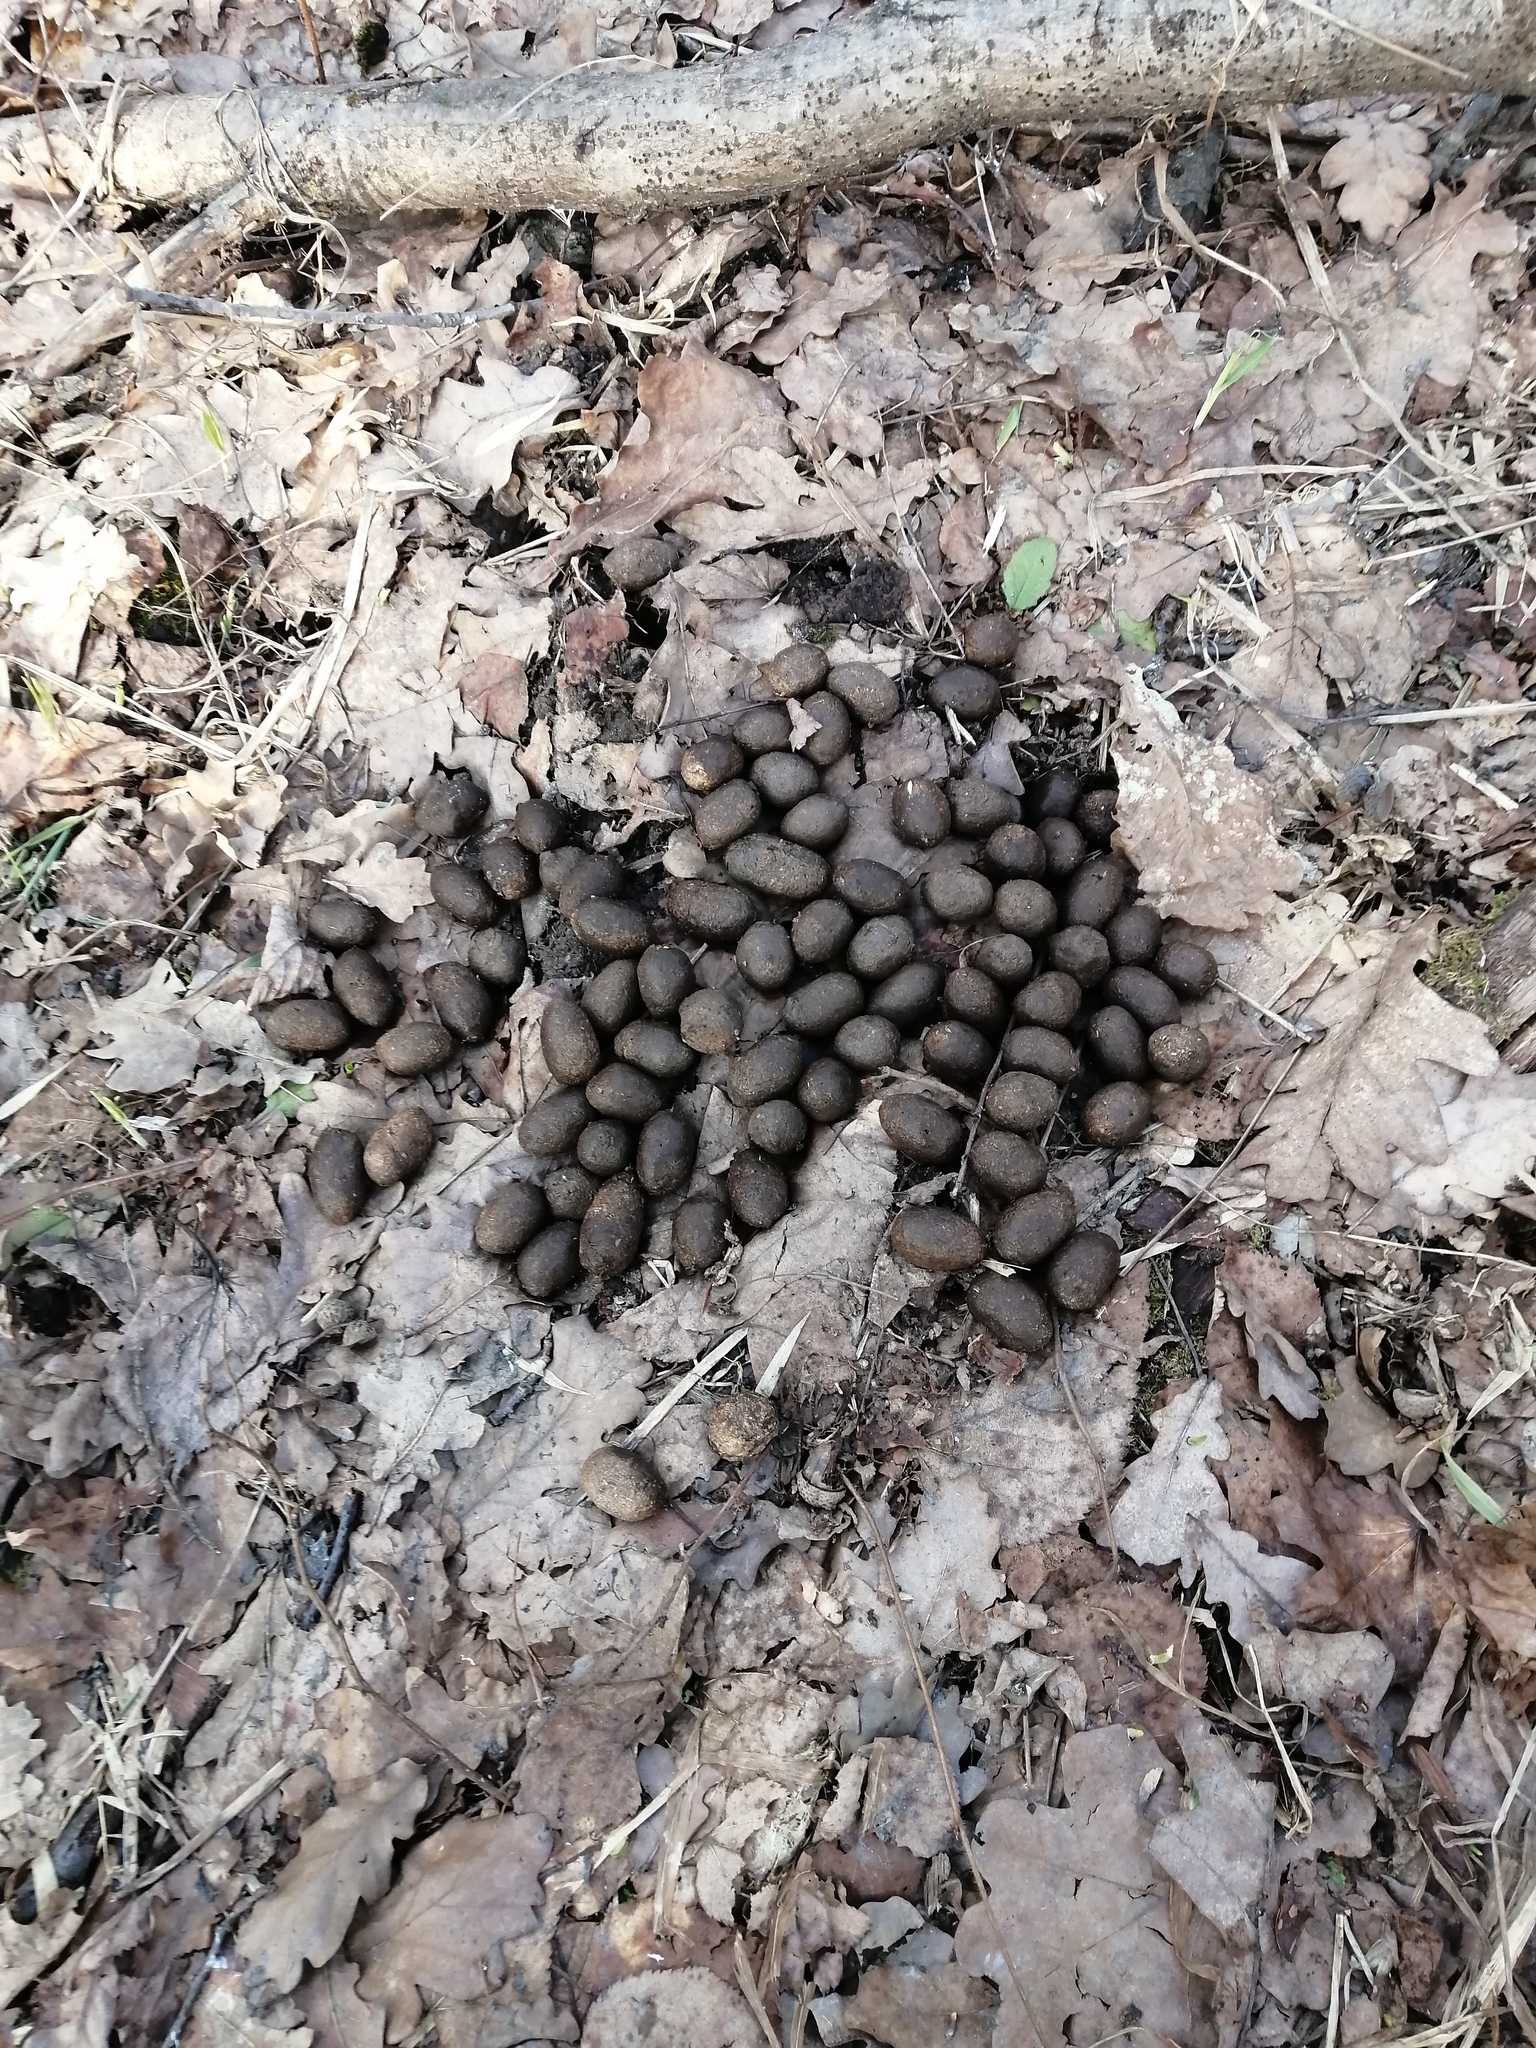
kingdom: Animalia
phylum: Chordata
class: Mammalia
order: Artiodactyla
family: Cervidae
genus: Alces
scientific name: Alces alces
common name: Moose
